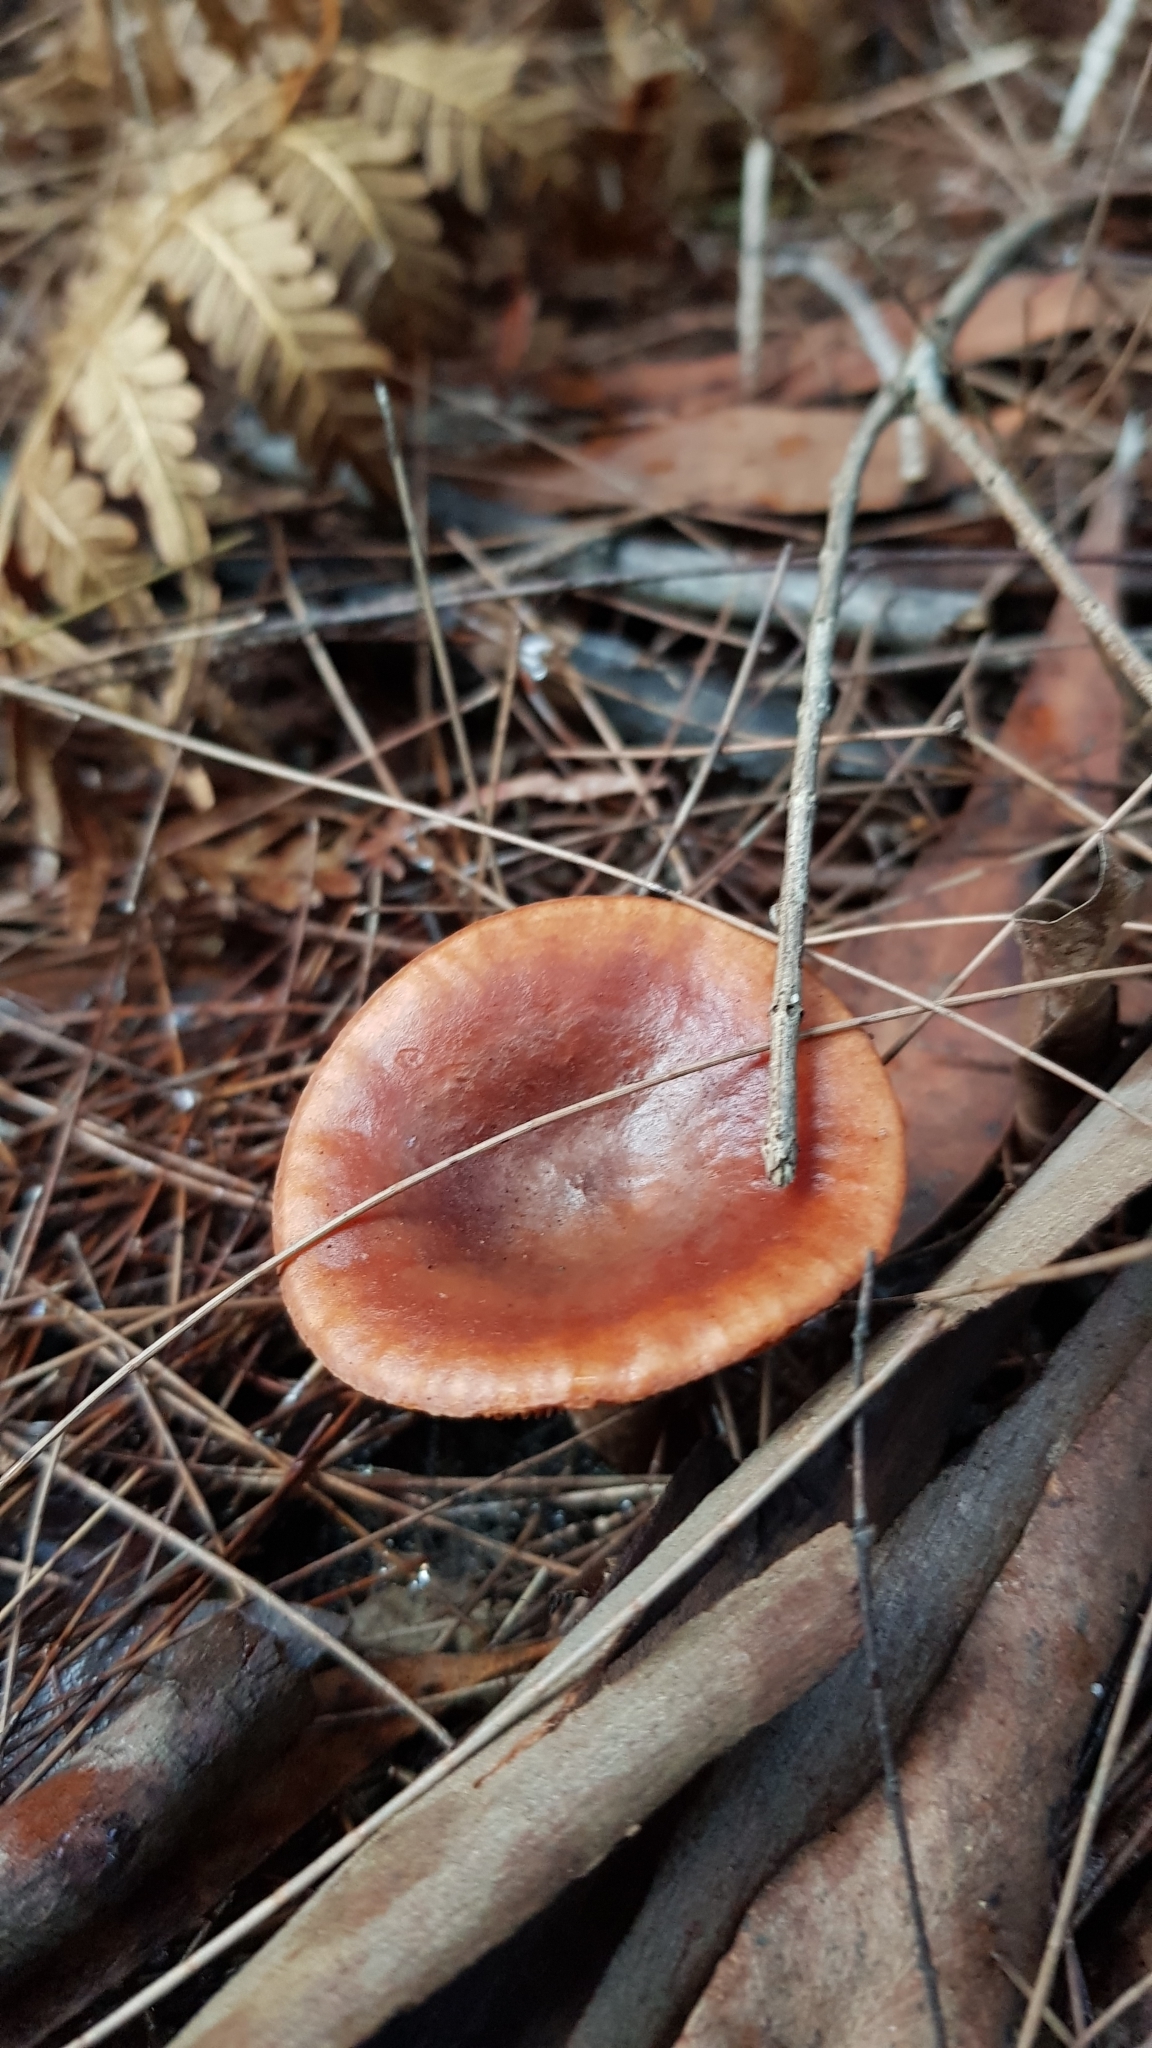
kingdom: Fungi
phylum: Basidiomycota
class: Agaricomycetes
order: Russulales
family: Russulaceae
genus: Lactarius
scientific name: Lactarius eucalypti
